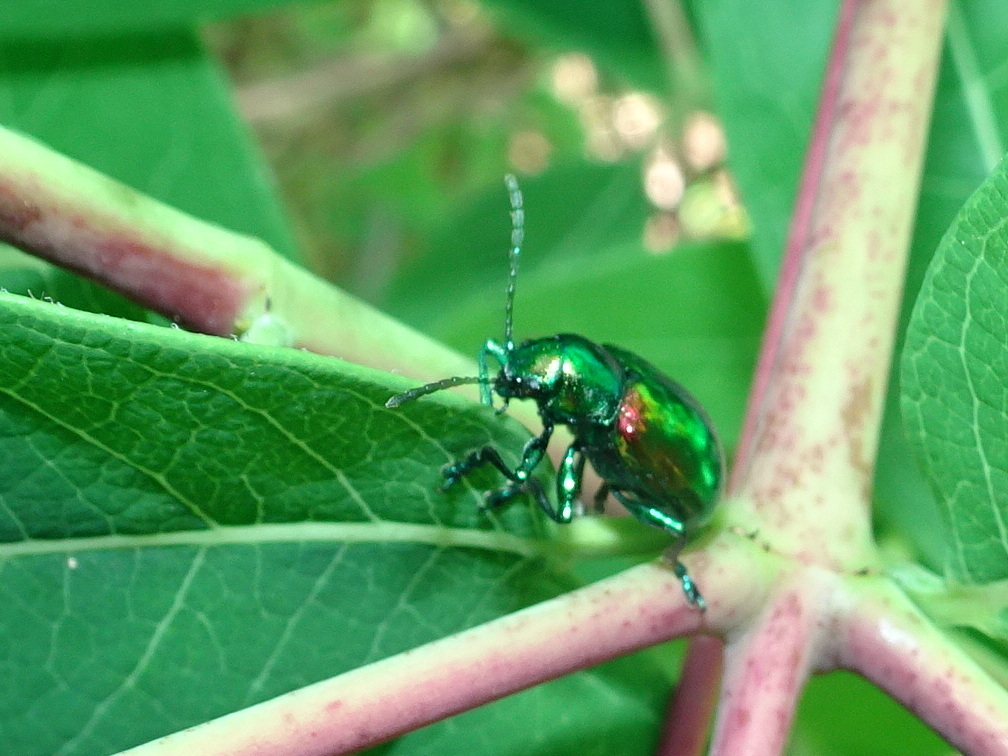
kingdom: Animalia
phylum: Arthropoda
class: Insecta
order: Coleoptera
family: Chrysomelidae
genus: Chrysochus
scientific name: Chrysochus auratus
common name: Dogbane leaf beetle
